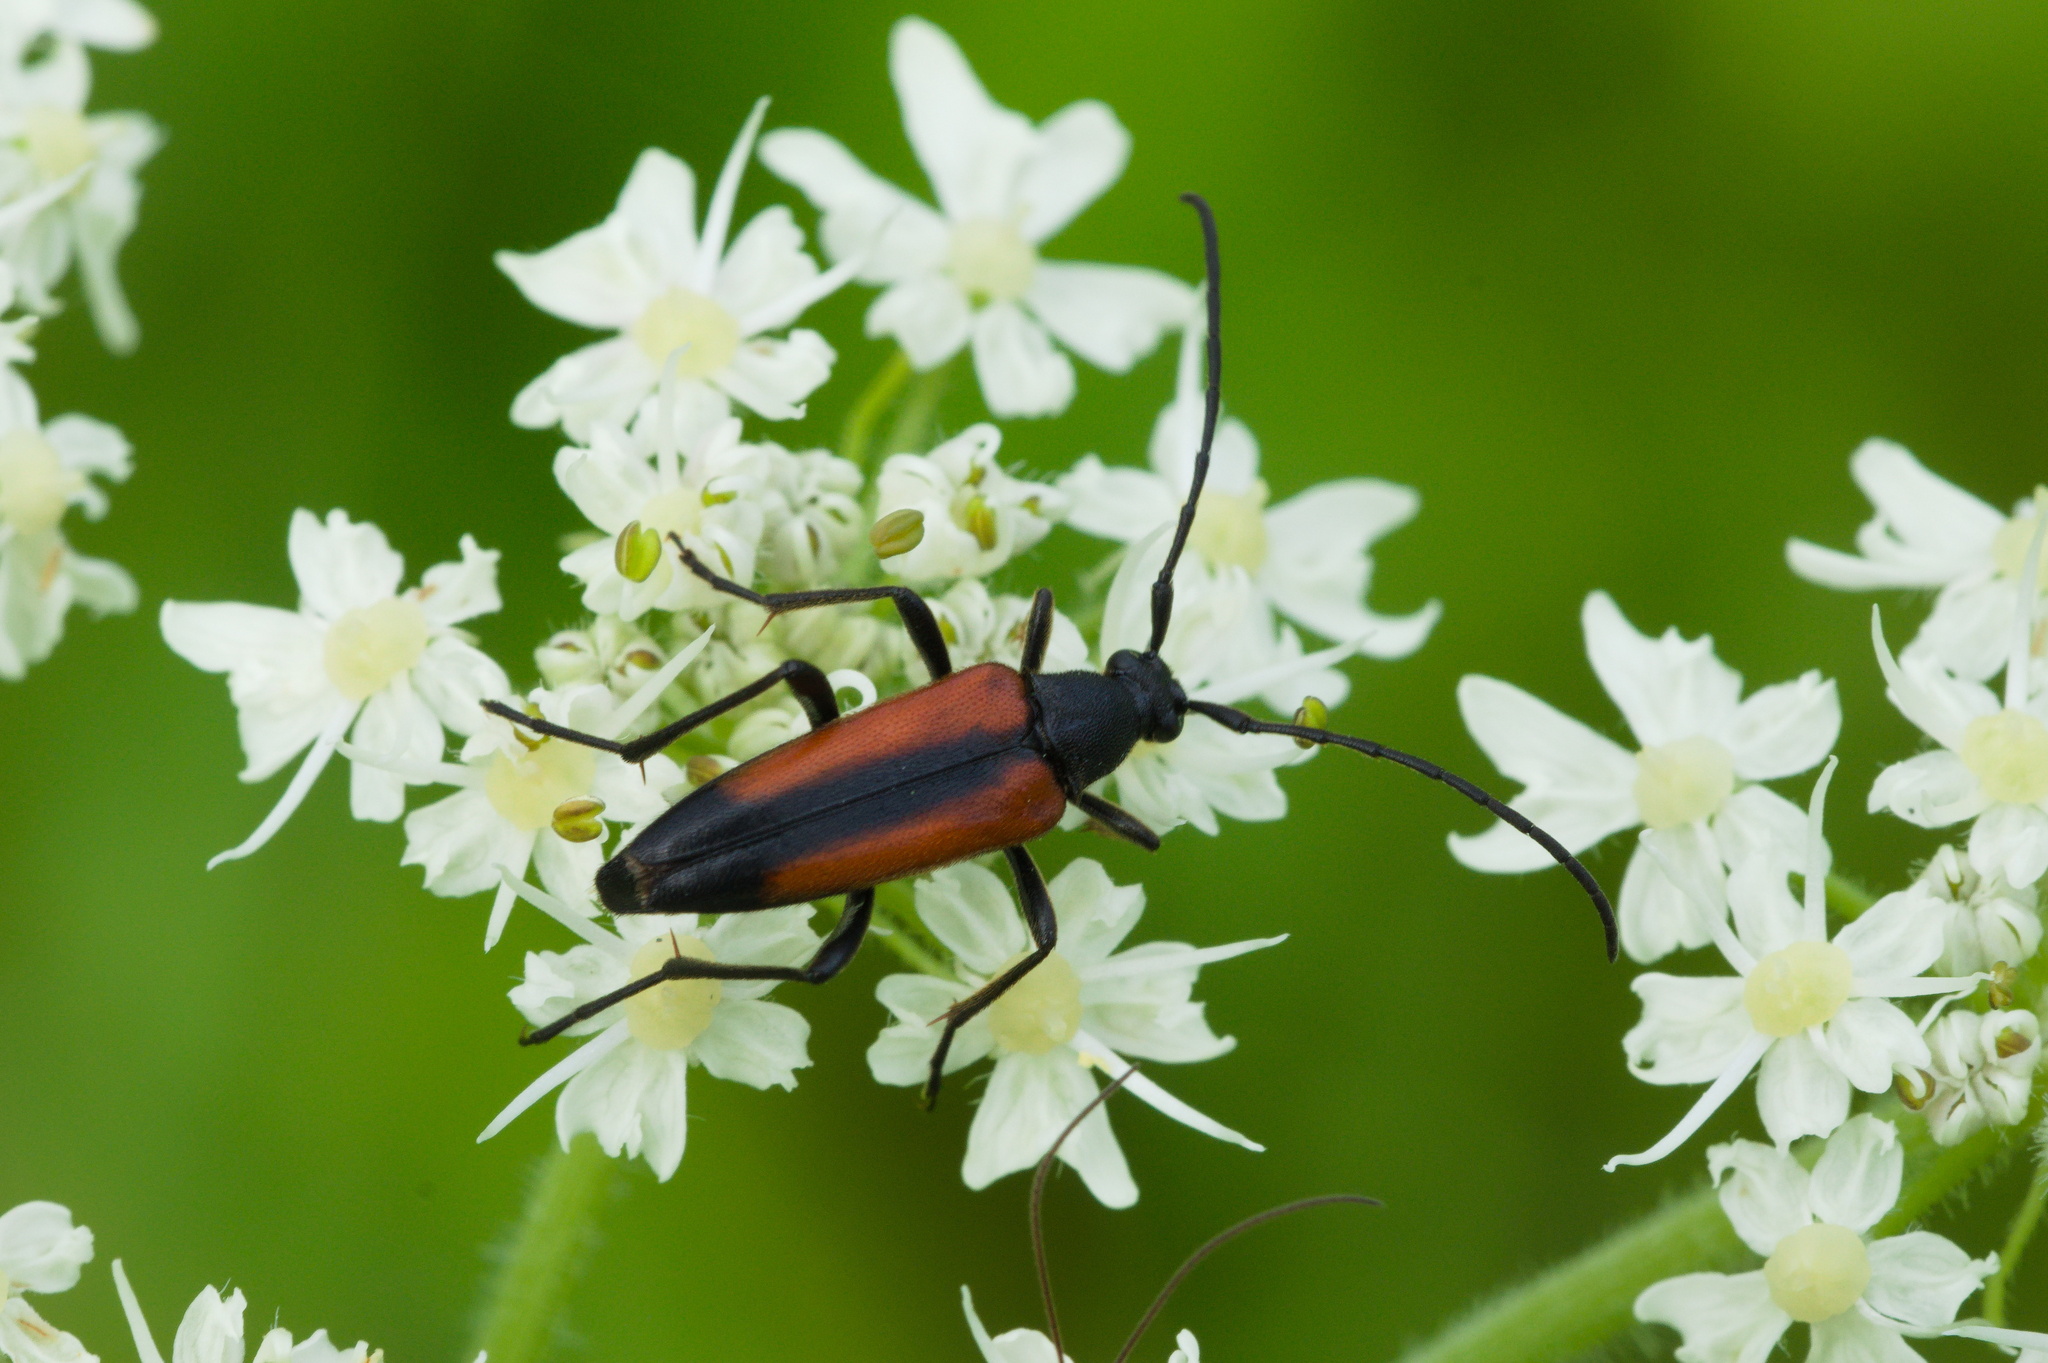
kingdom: Animalia
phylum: Arthropoda
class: Insecta
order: Coleoptera
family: Cerambycidae
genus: Stenurella
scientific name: Stenurella melanura
